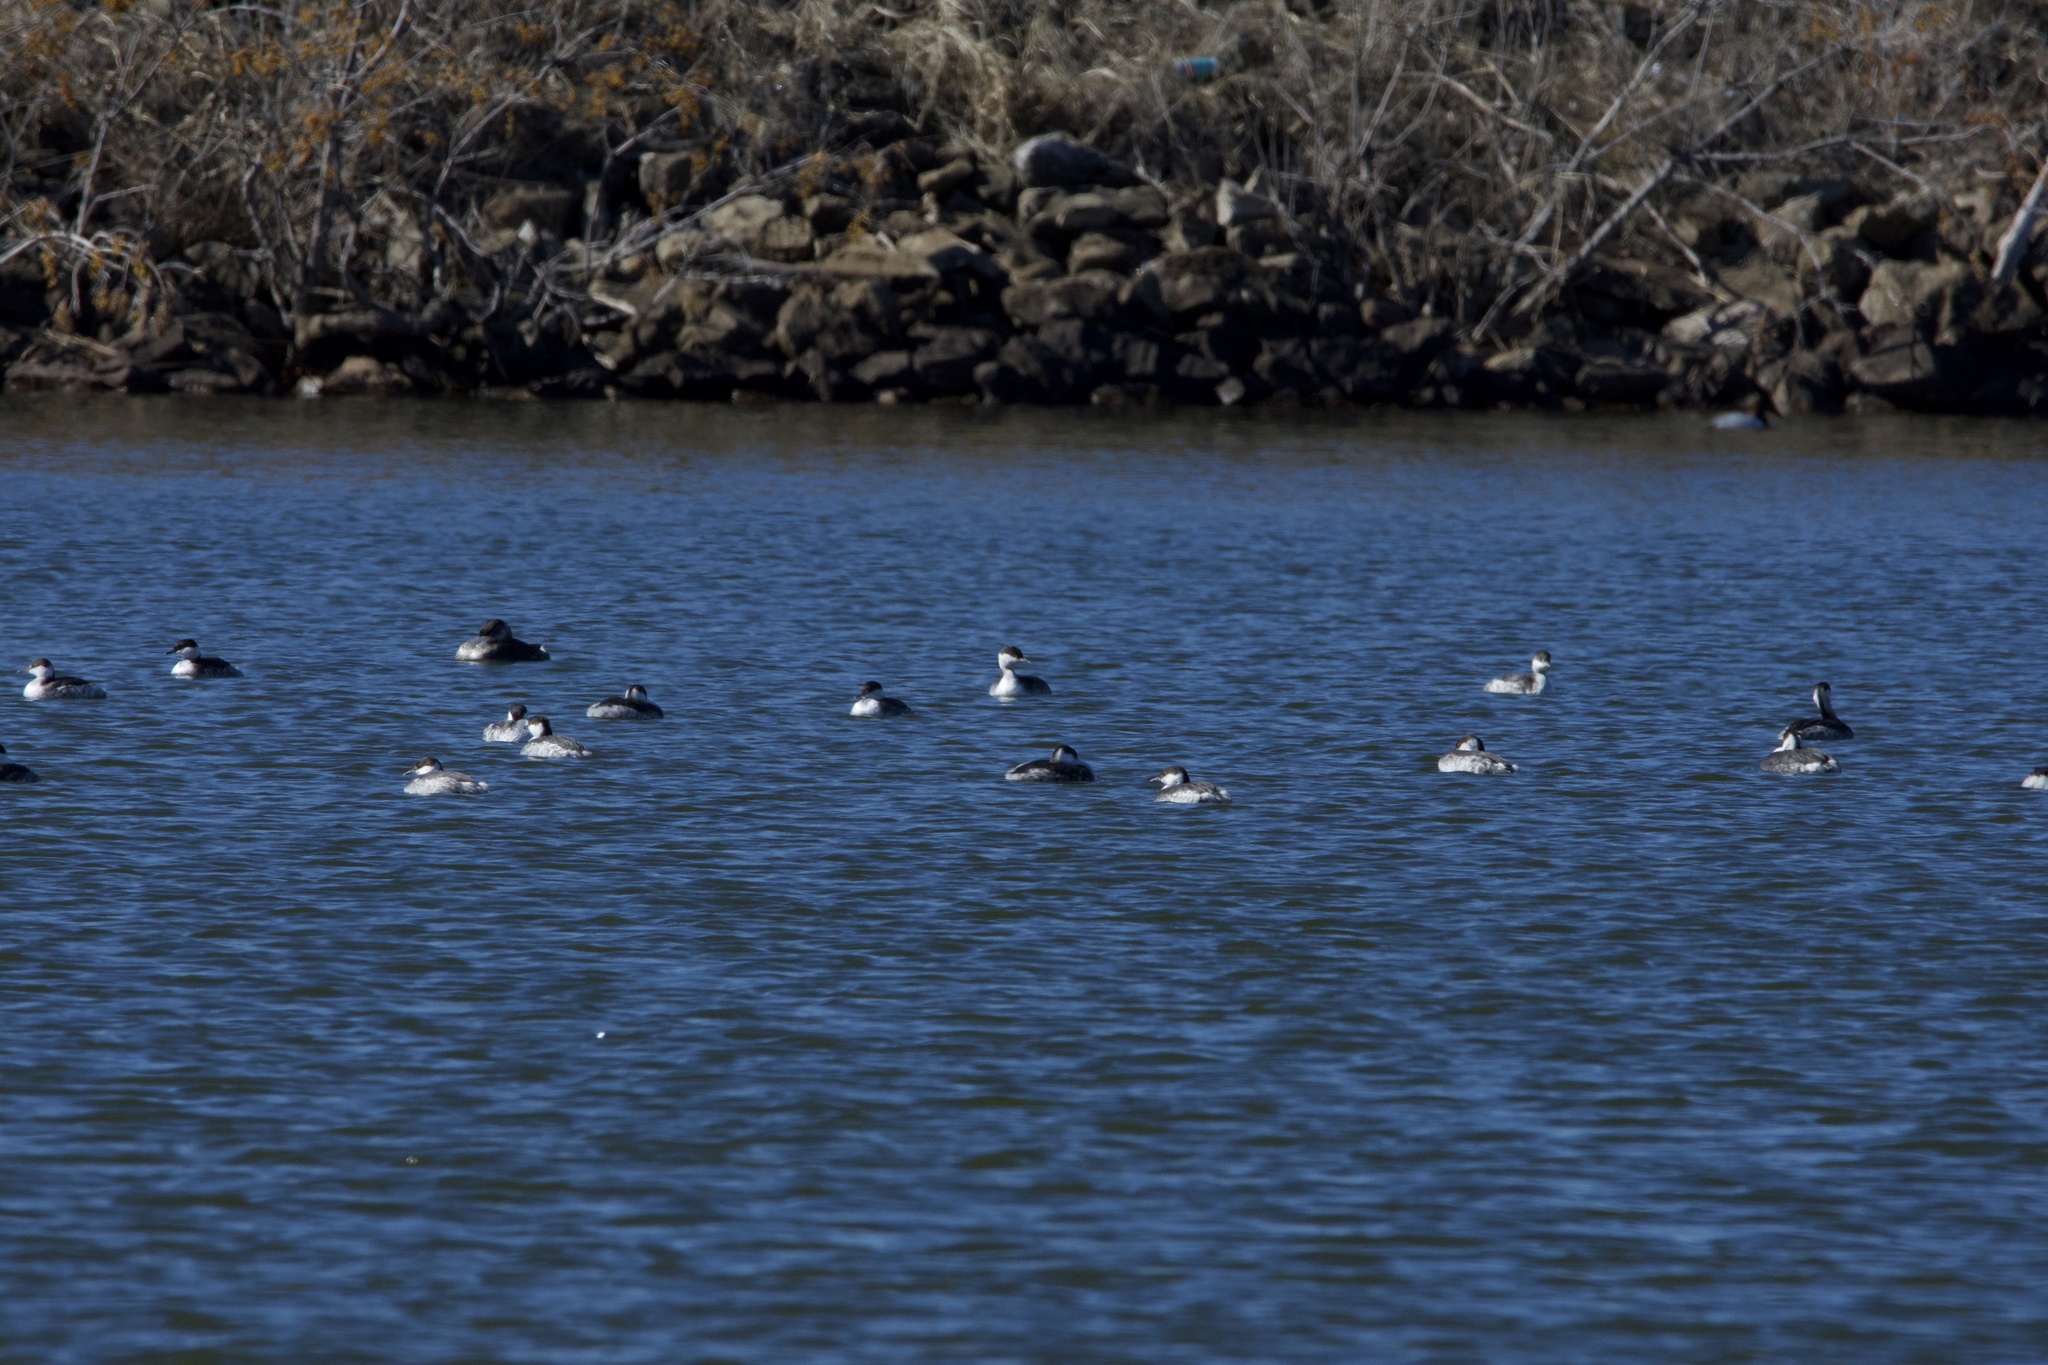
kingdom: Animalia
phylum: Chordata
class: Aves
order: Podicipediformes
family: Podicipedidae
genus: Podiceps
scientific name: Podiceps auritus
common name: Horned grebe
